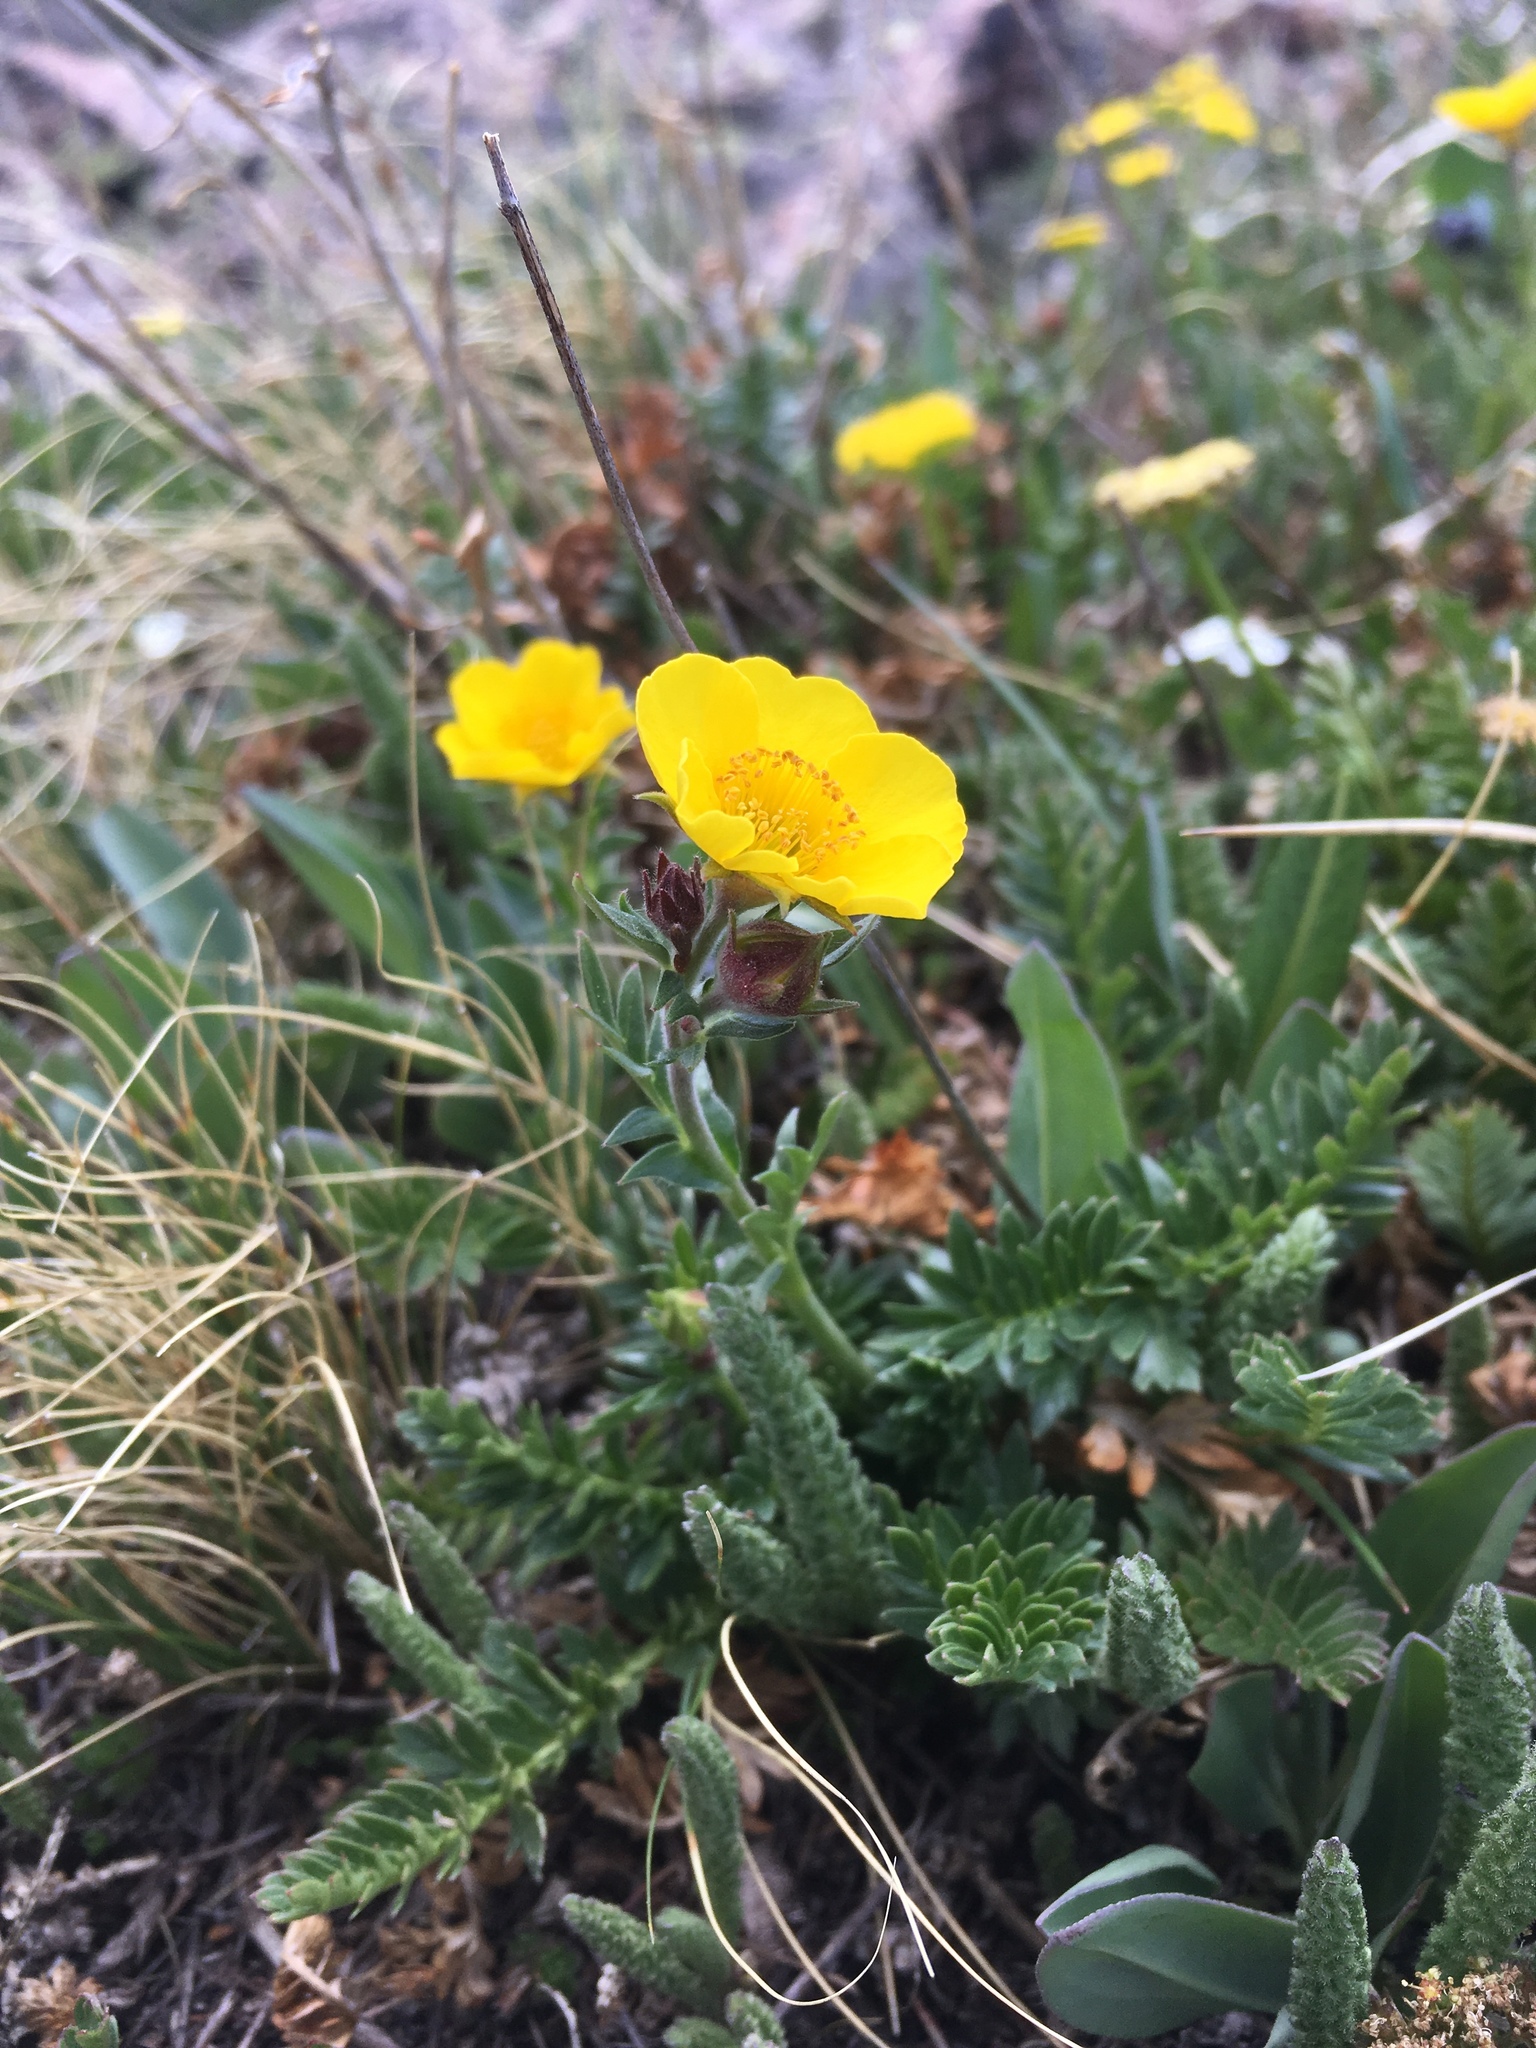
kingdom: Plantae
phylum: Tracheophyta
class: Magnoliopsida
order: Rosales
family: Rosaceae
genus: Geum
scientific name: Geum rossii
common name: Alpine avens
